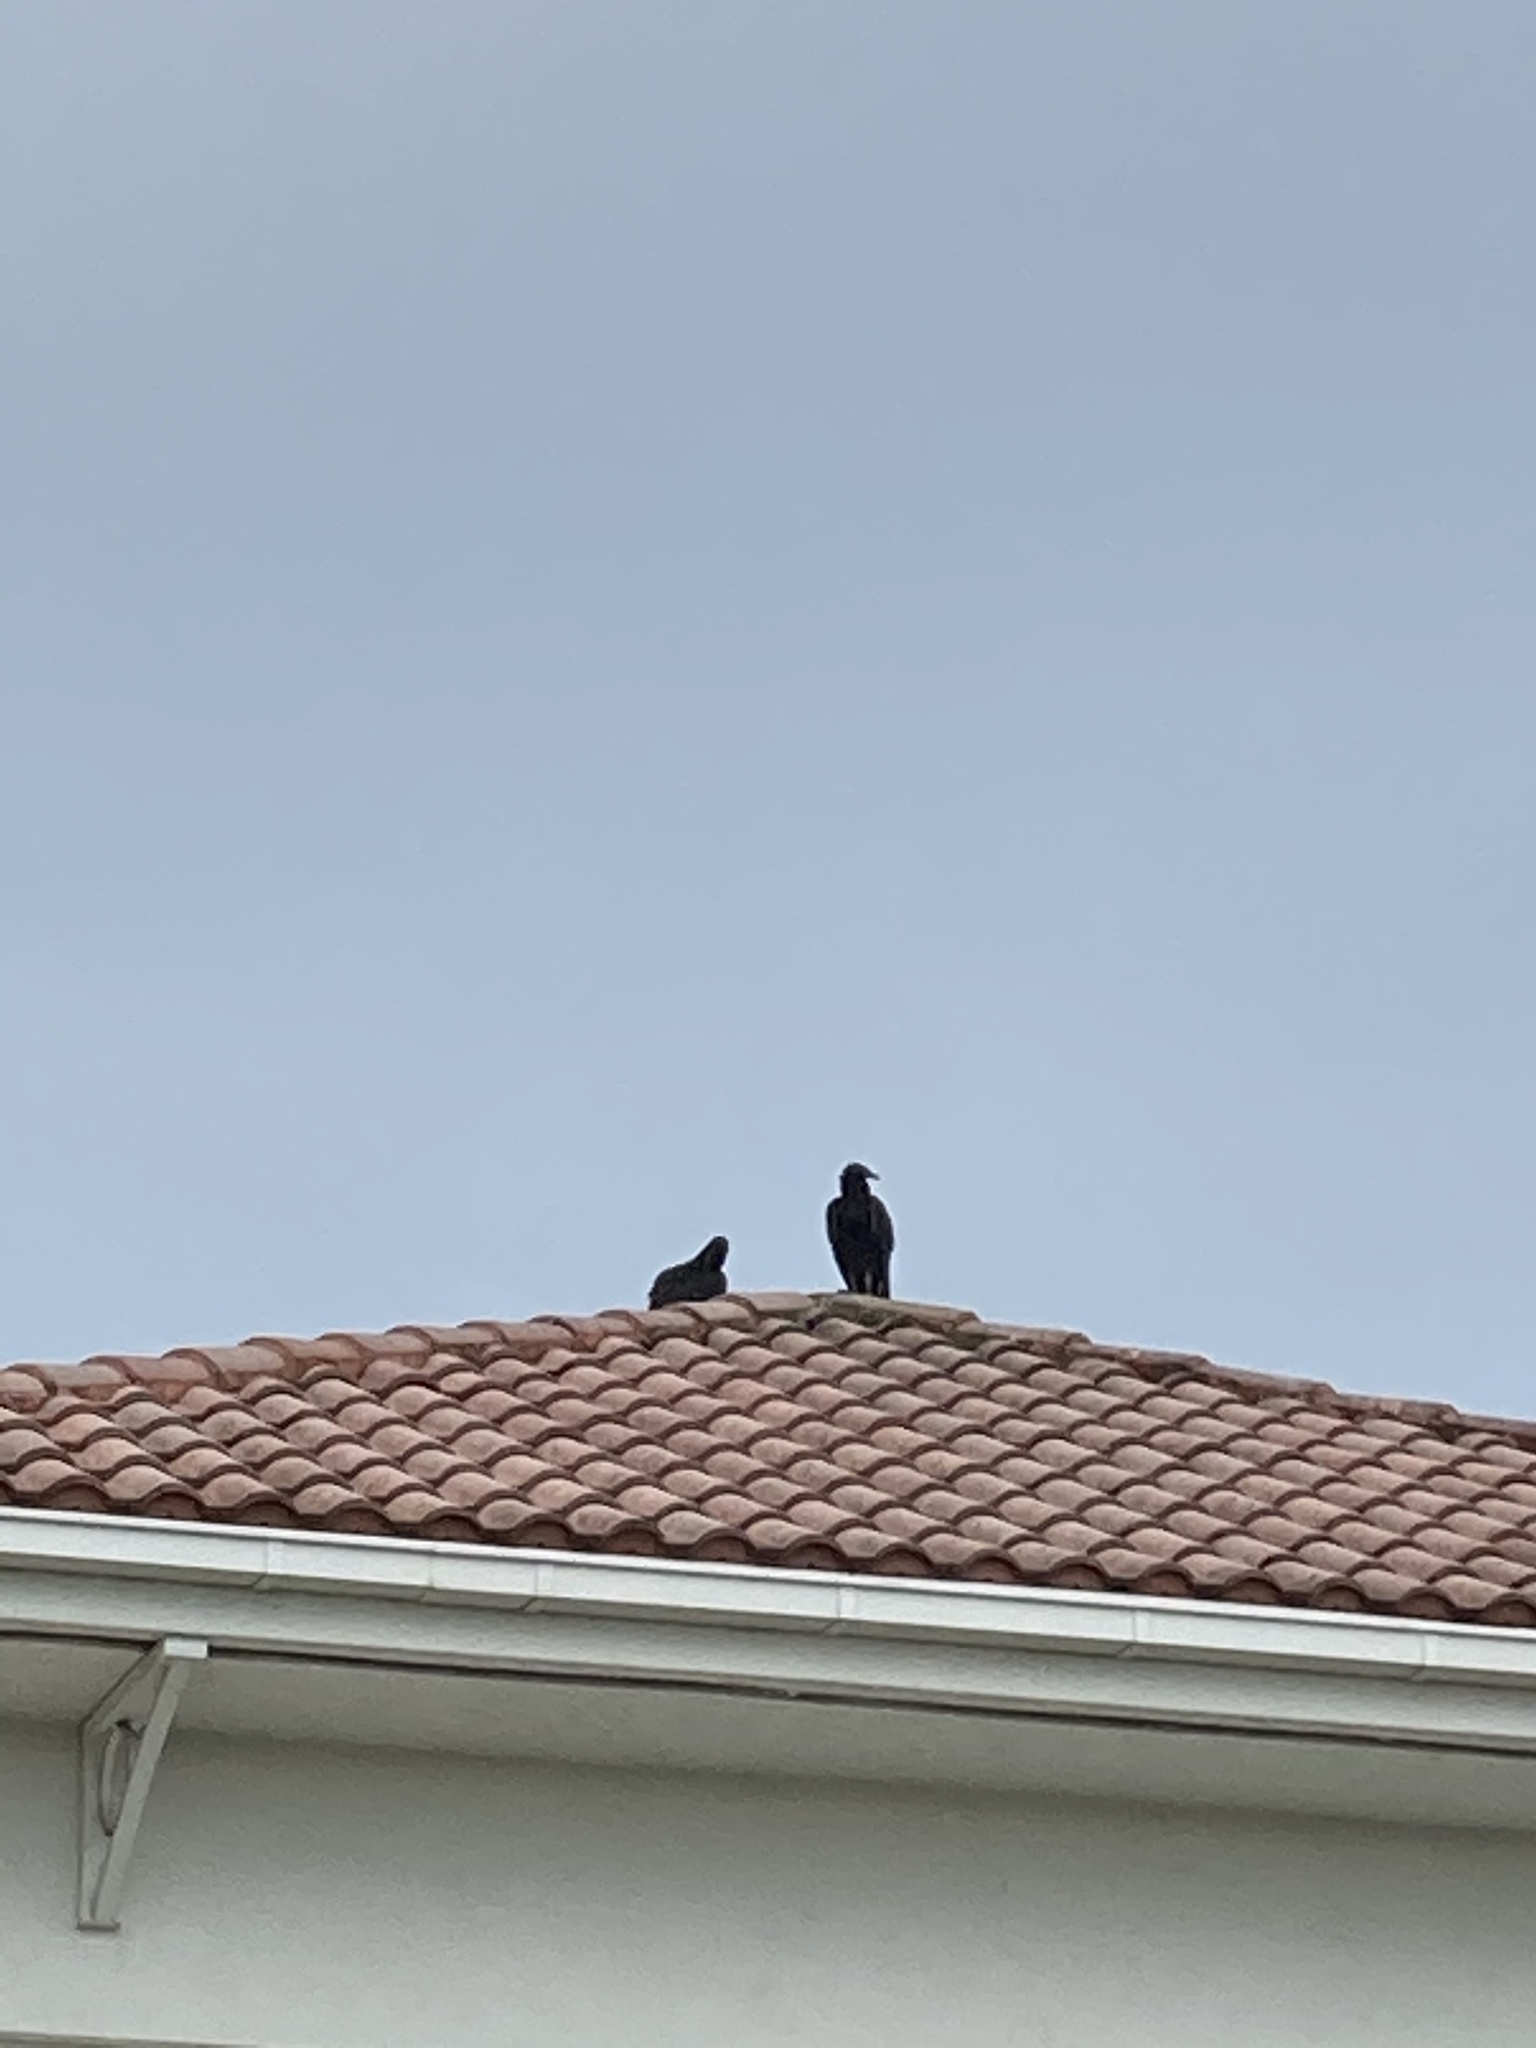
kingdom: Animalia
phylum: Chordata
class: Aves
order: Accipitriformes
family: Cathartidae
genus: Coragyps
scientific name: Coragyps atratus
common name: Black vulture
